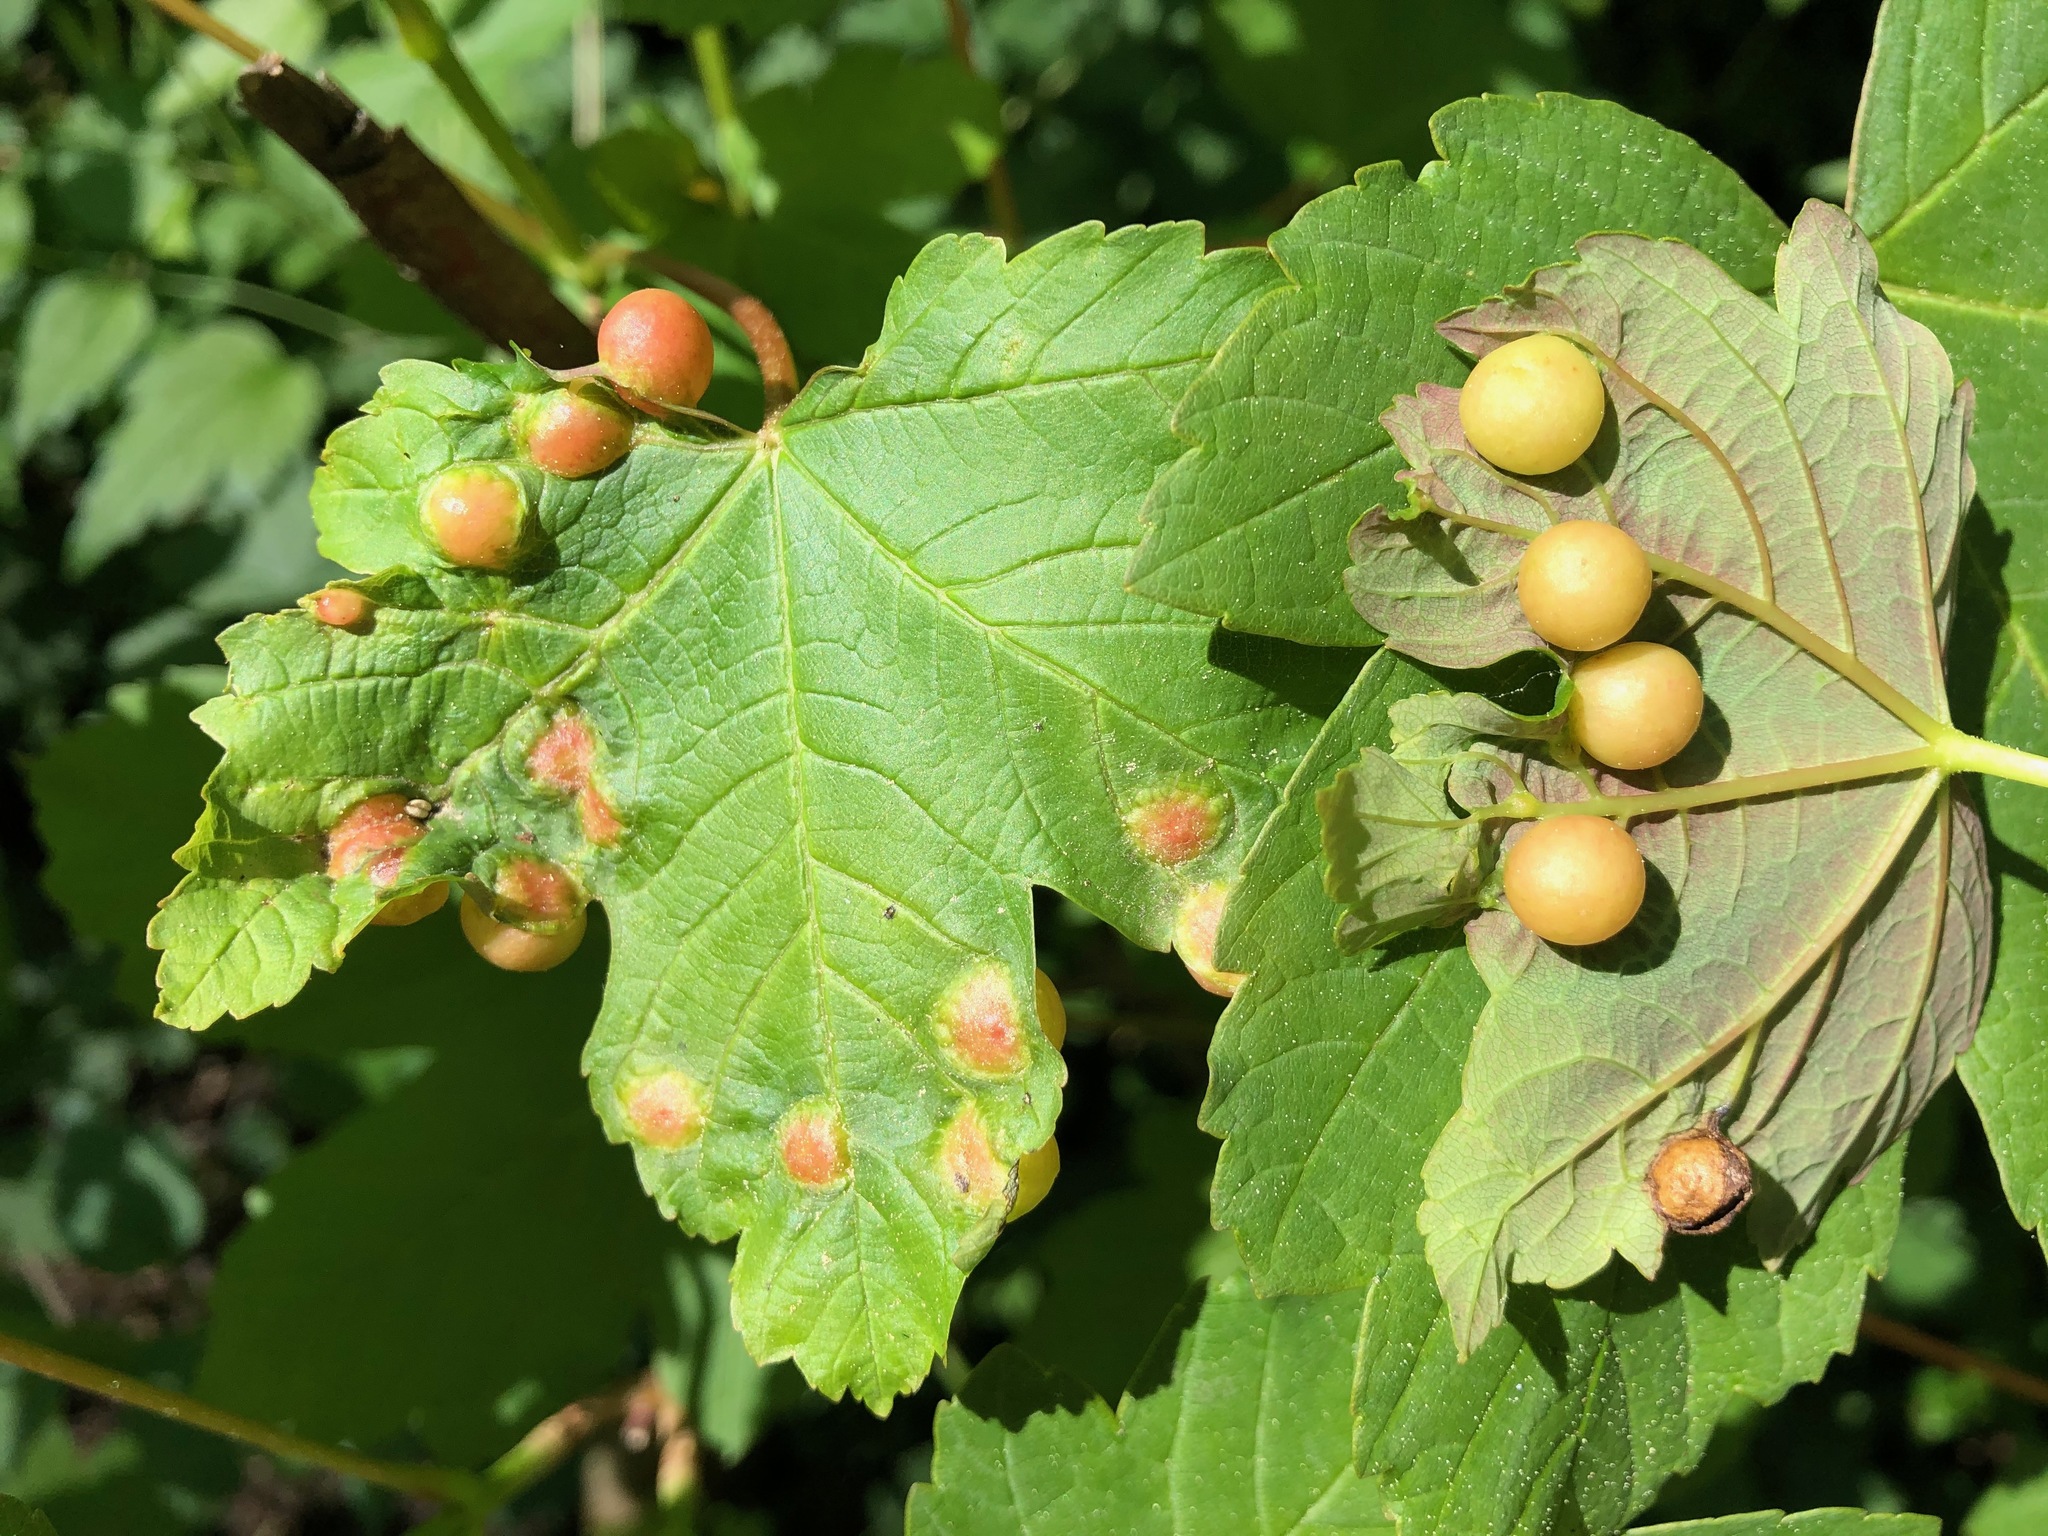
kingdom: Animalia
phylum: Arthropoda
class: Insecta
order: Hymenoptera
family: Cynipidae
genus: Pediaspis
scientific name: Pediaspis aceris
